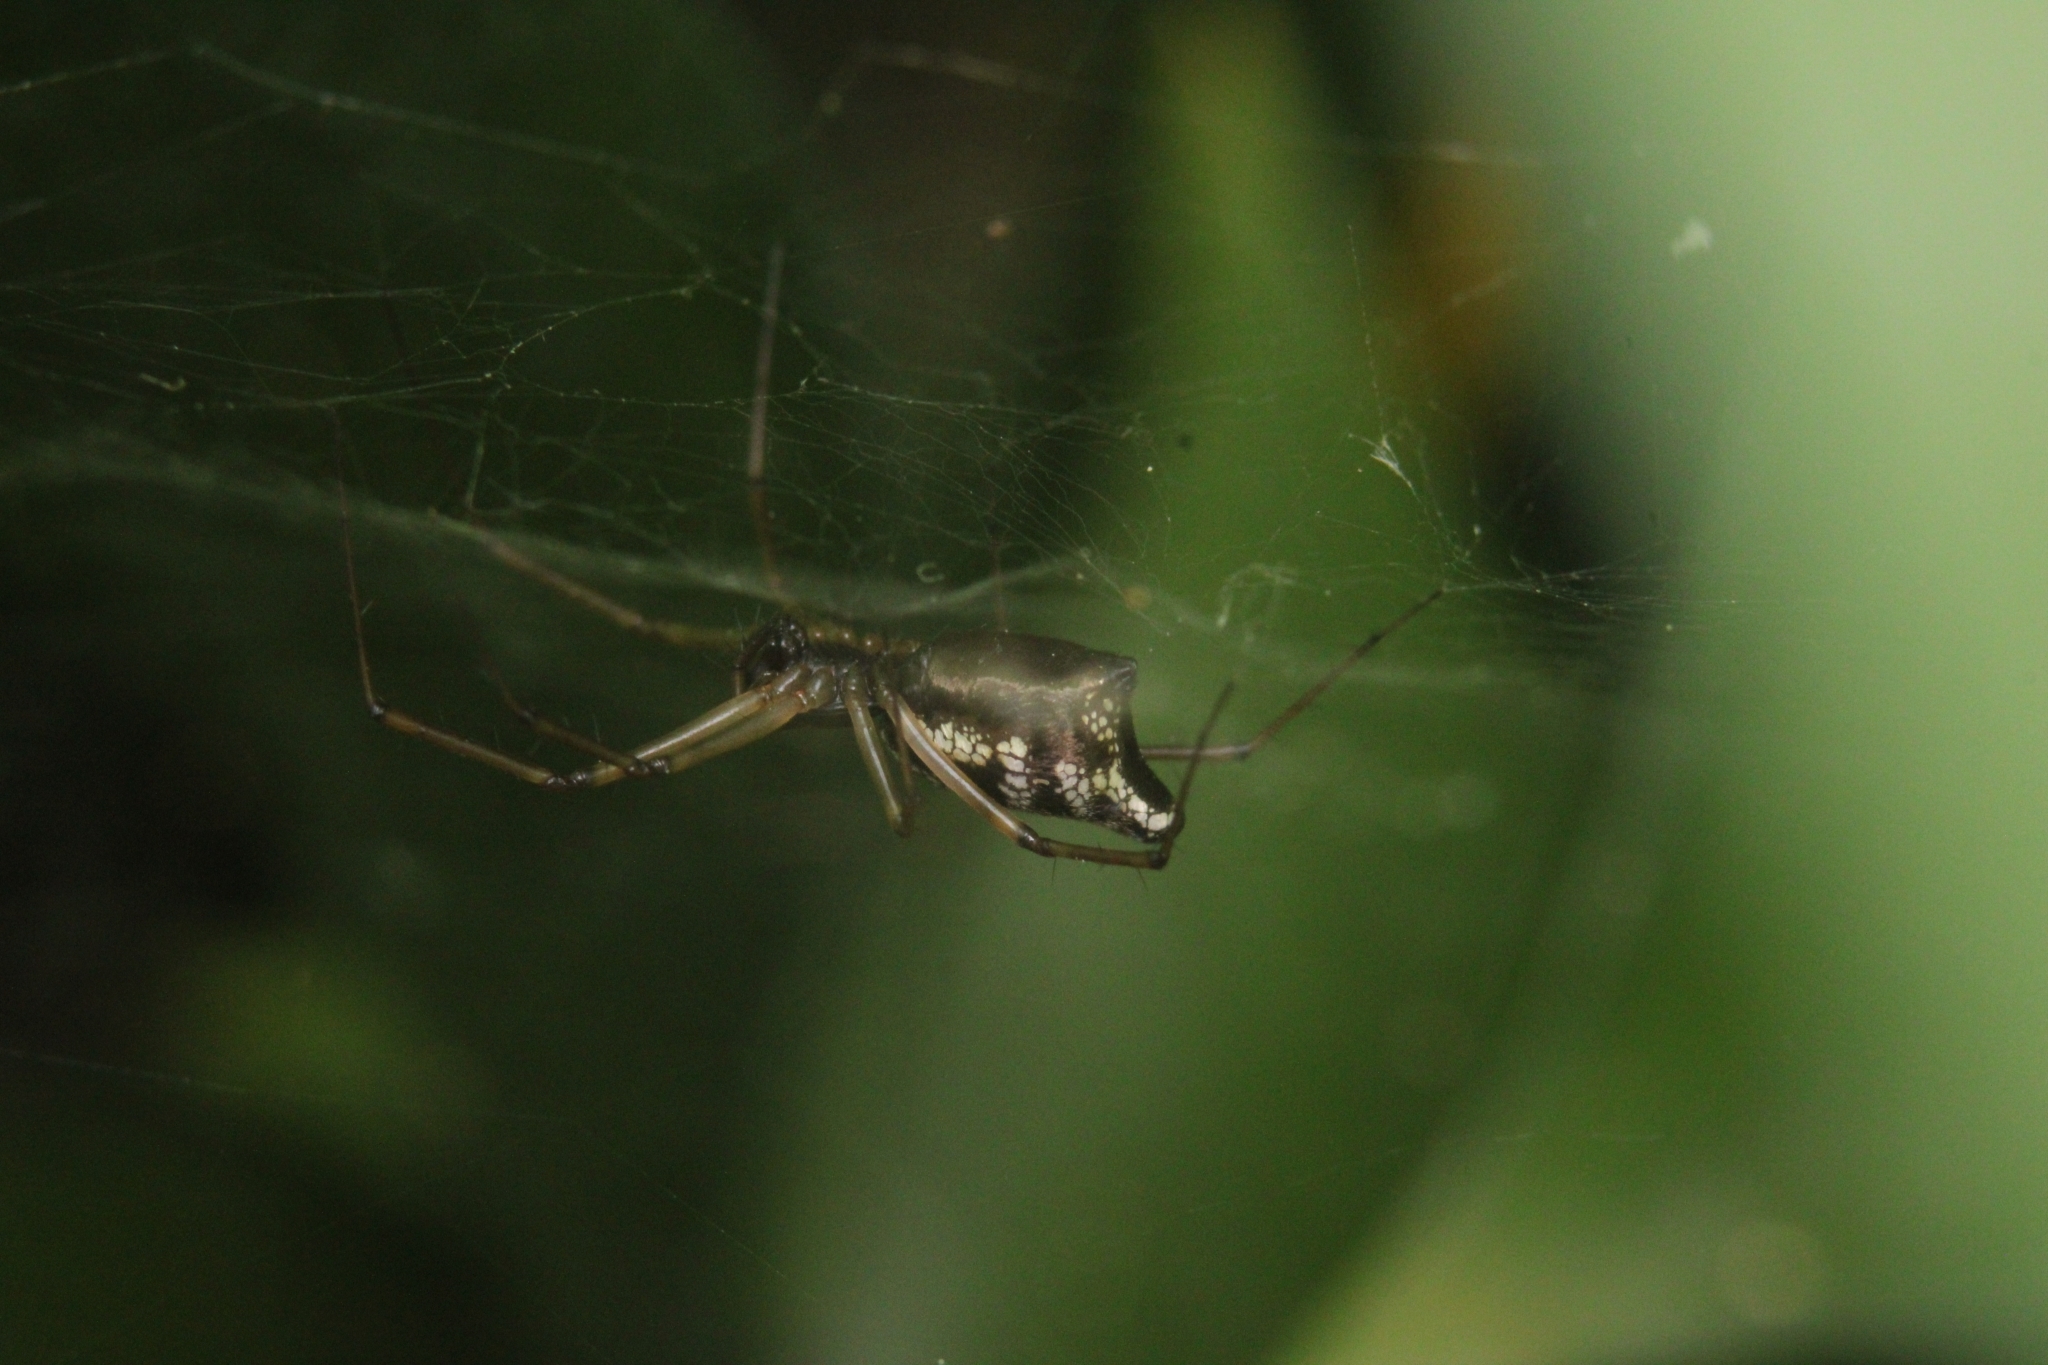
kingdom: Animalia
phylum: Arthropoda
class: Arachnida
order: Araneae
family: Linyphiidae
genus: Microlinyphia
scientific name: Microlinyphia sterilis
